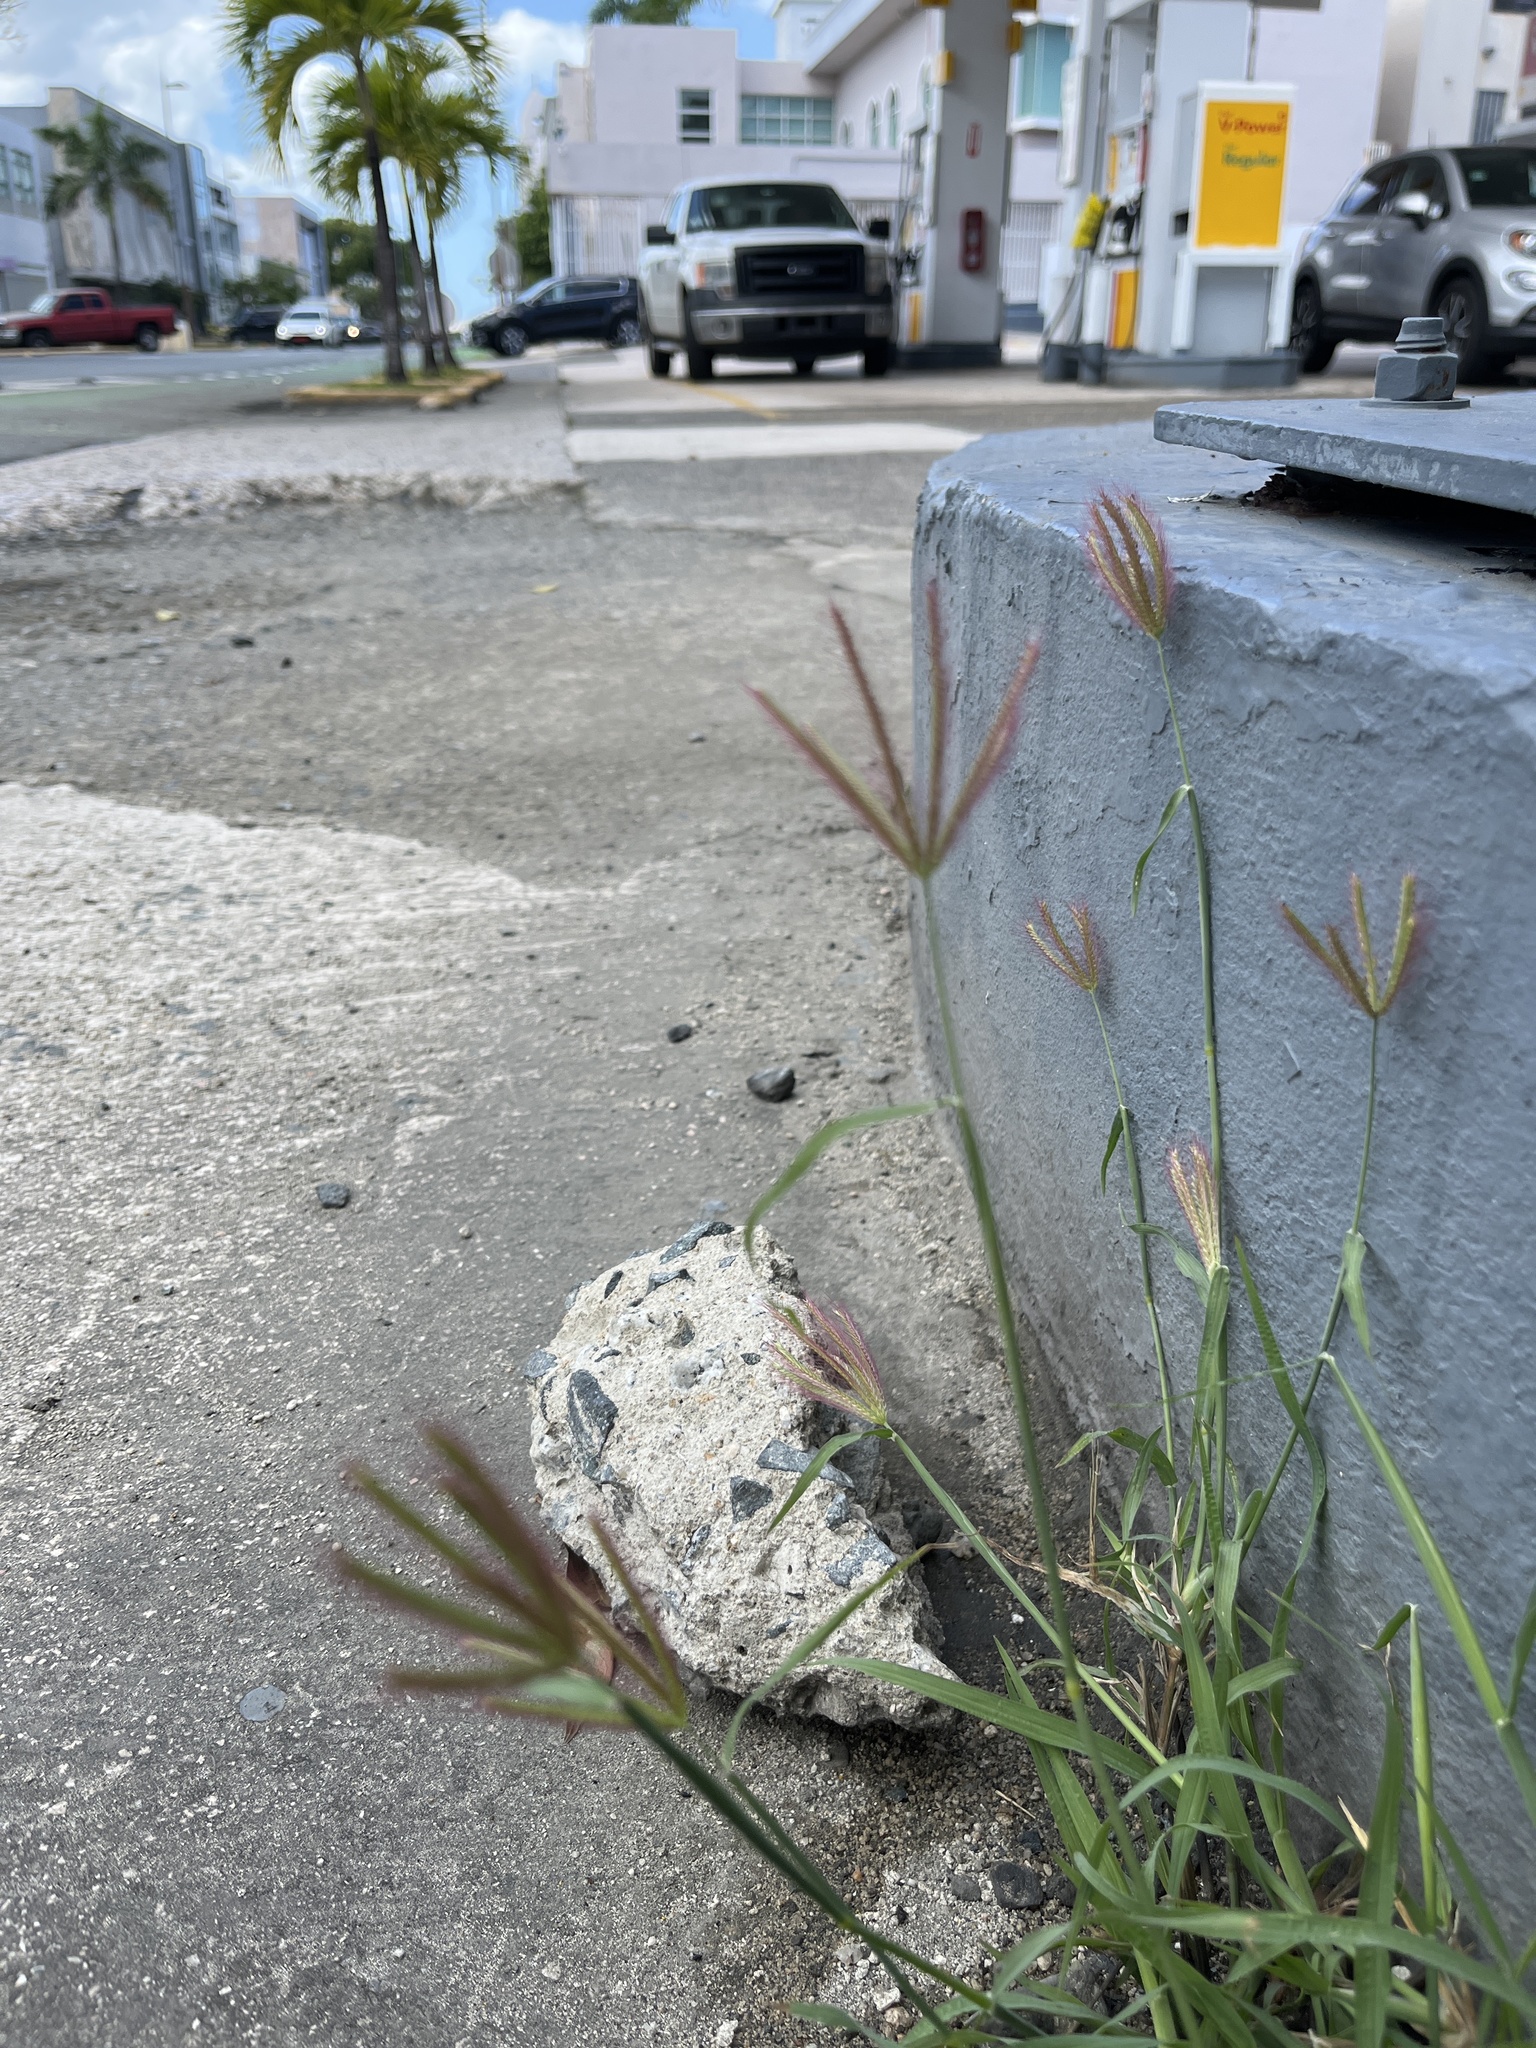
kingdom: Plantae
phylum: Tracheophyta
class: Liliopsida
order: Poales
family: Poaceae
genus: Chloris
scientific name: Chloris barbata
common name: Swollen fingergrass
